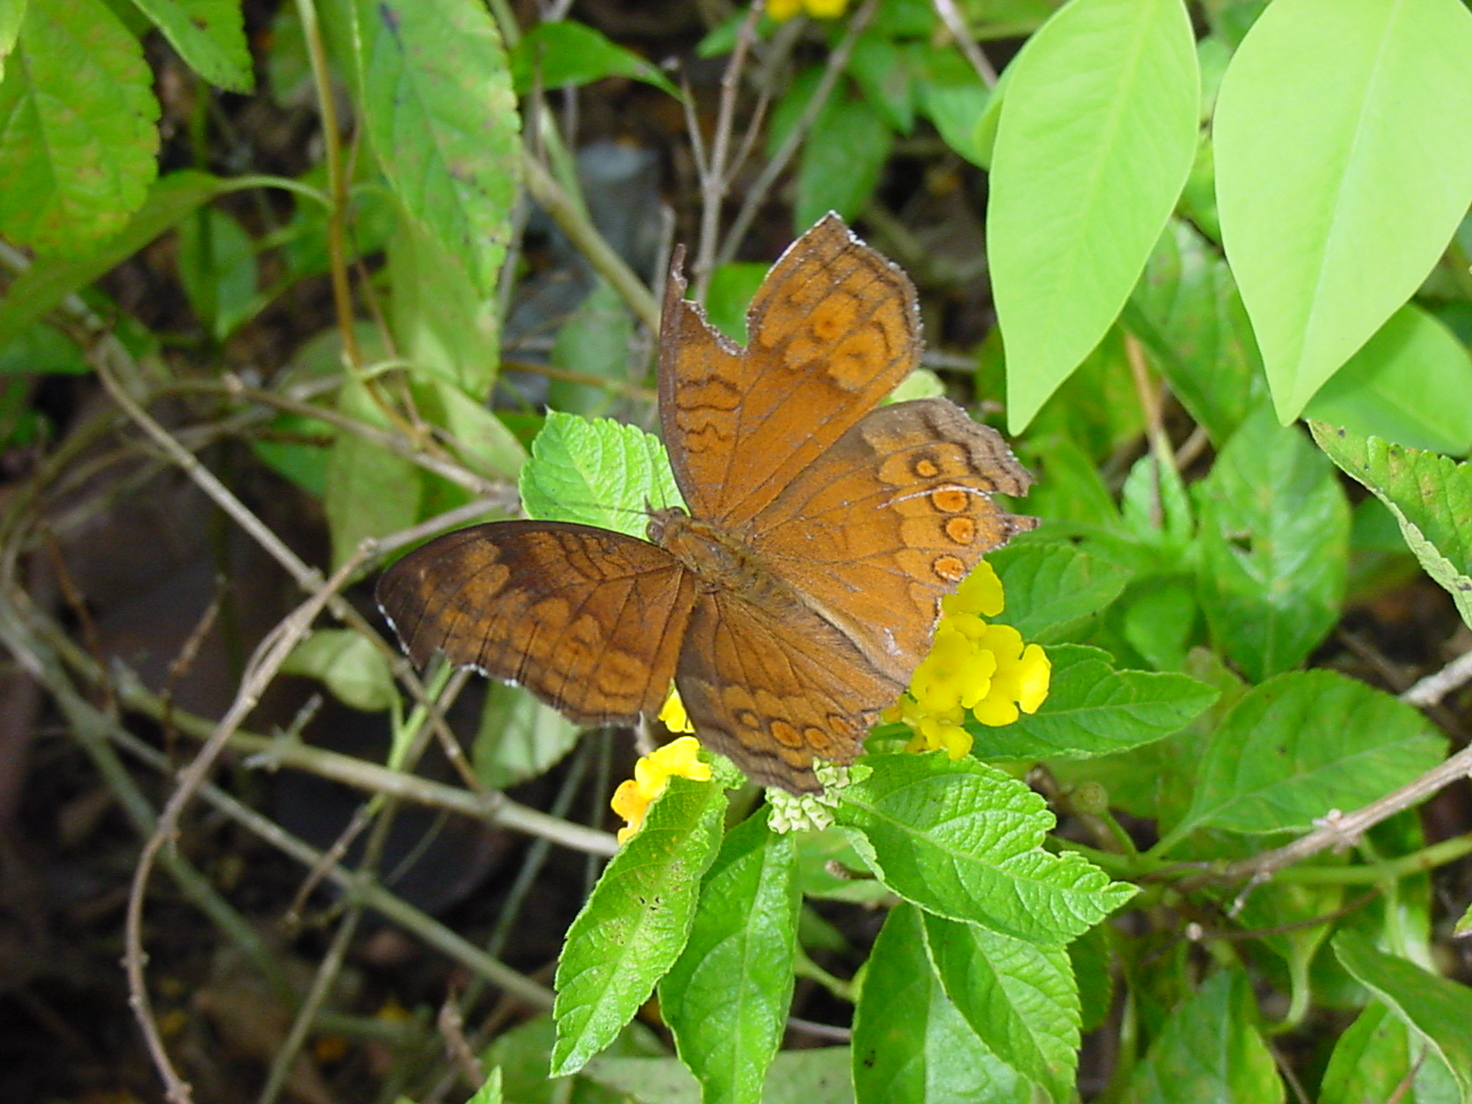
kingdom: Animalia
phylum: Arthropoda
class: Insecta
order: Lepidoptera
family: Nymphalidae
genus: Junonia
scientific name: Junonia hedonia
